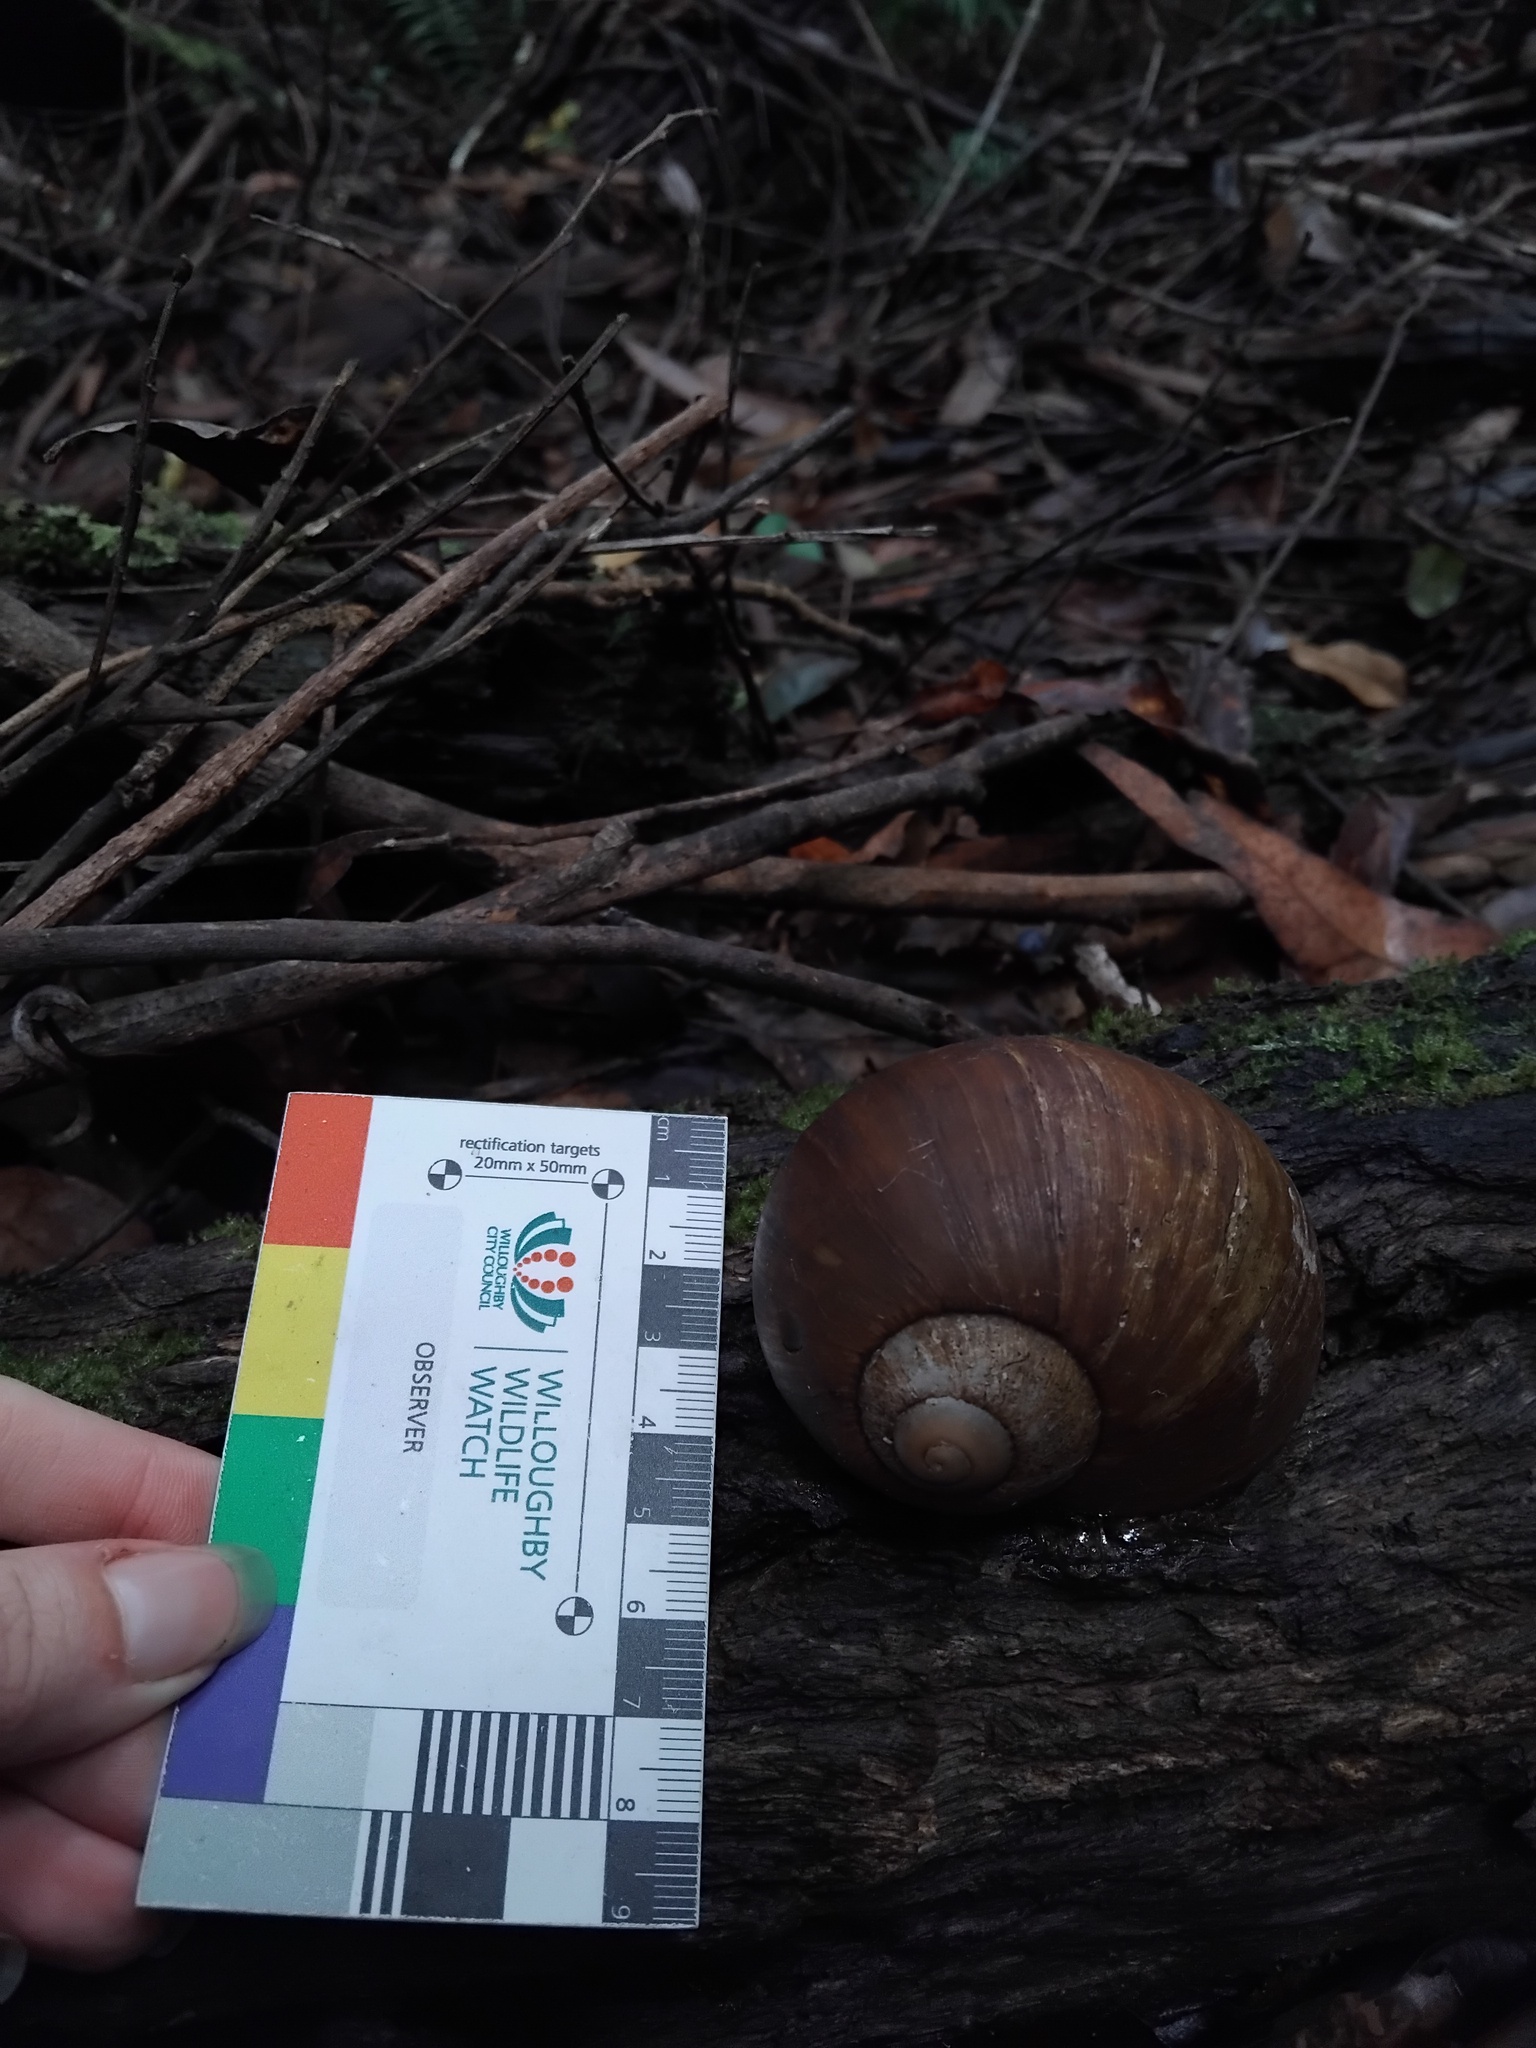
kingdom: Animalia
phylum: Mollusca
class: Gastropoda
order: Stylommatophora
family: Caryodidae
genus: Hedleyella
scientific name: Hedleyella falconeri
